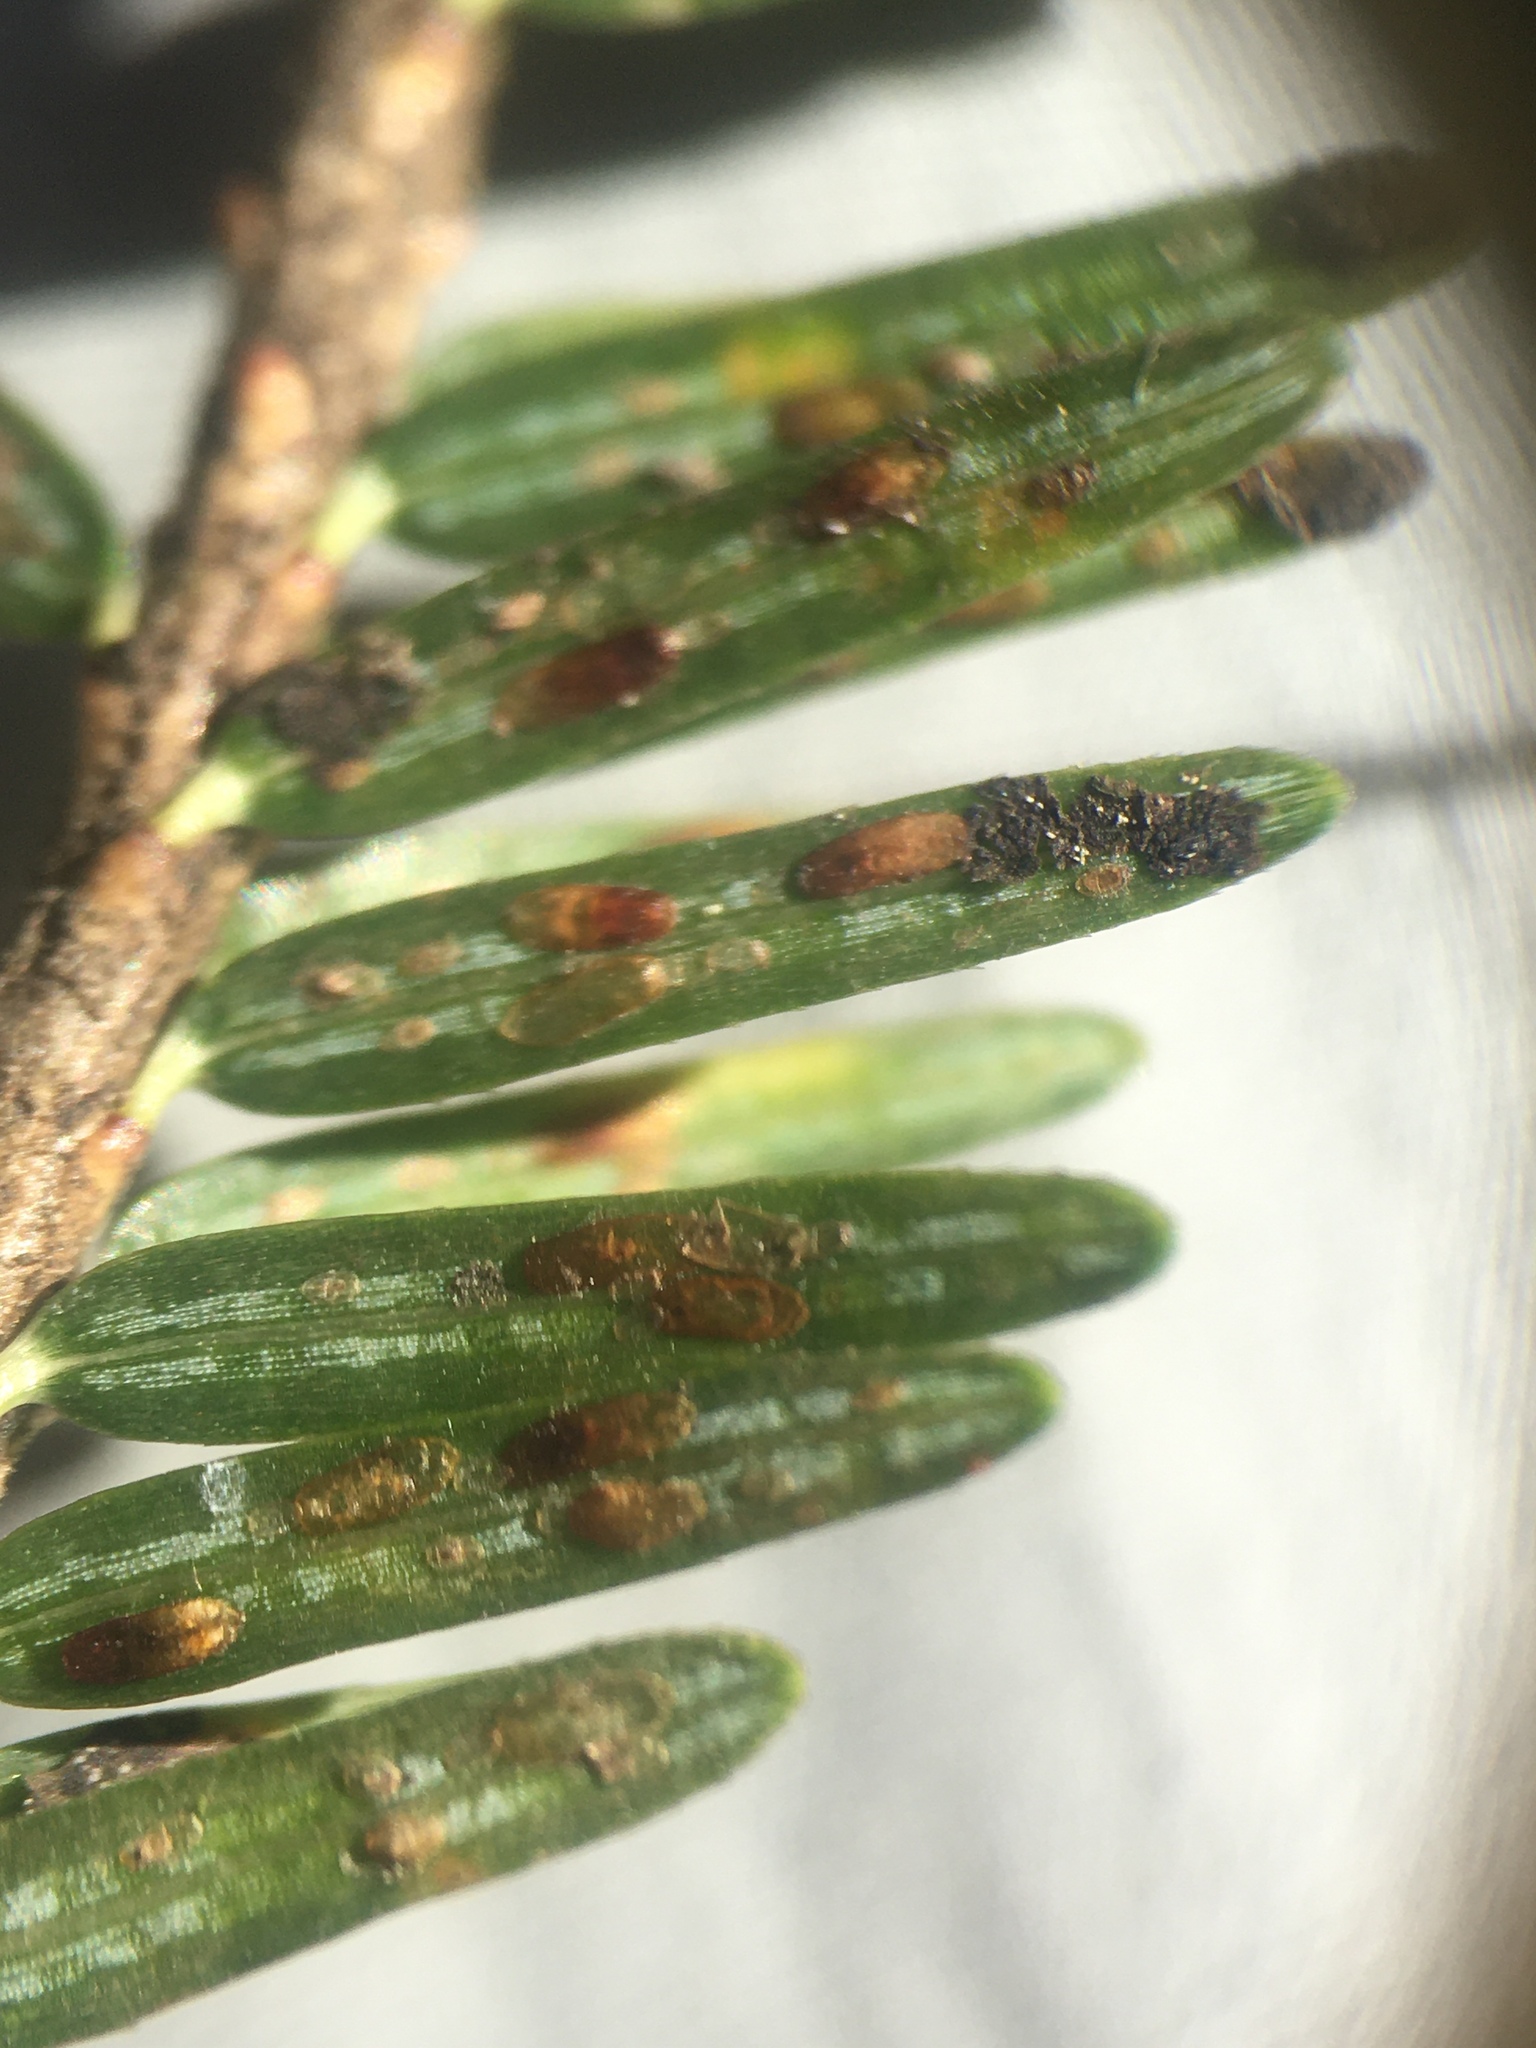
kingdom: Animalia
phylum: Arthropoda
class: Insecta
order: Hemiptera
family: Diaspididae
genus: Fiorinia
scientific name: Fiorinia externa
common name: Elongate hemlock scale
